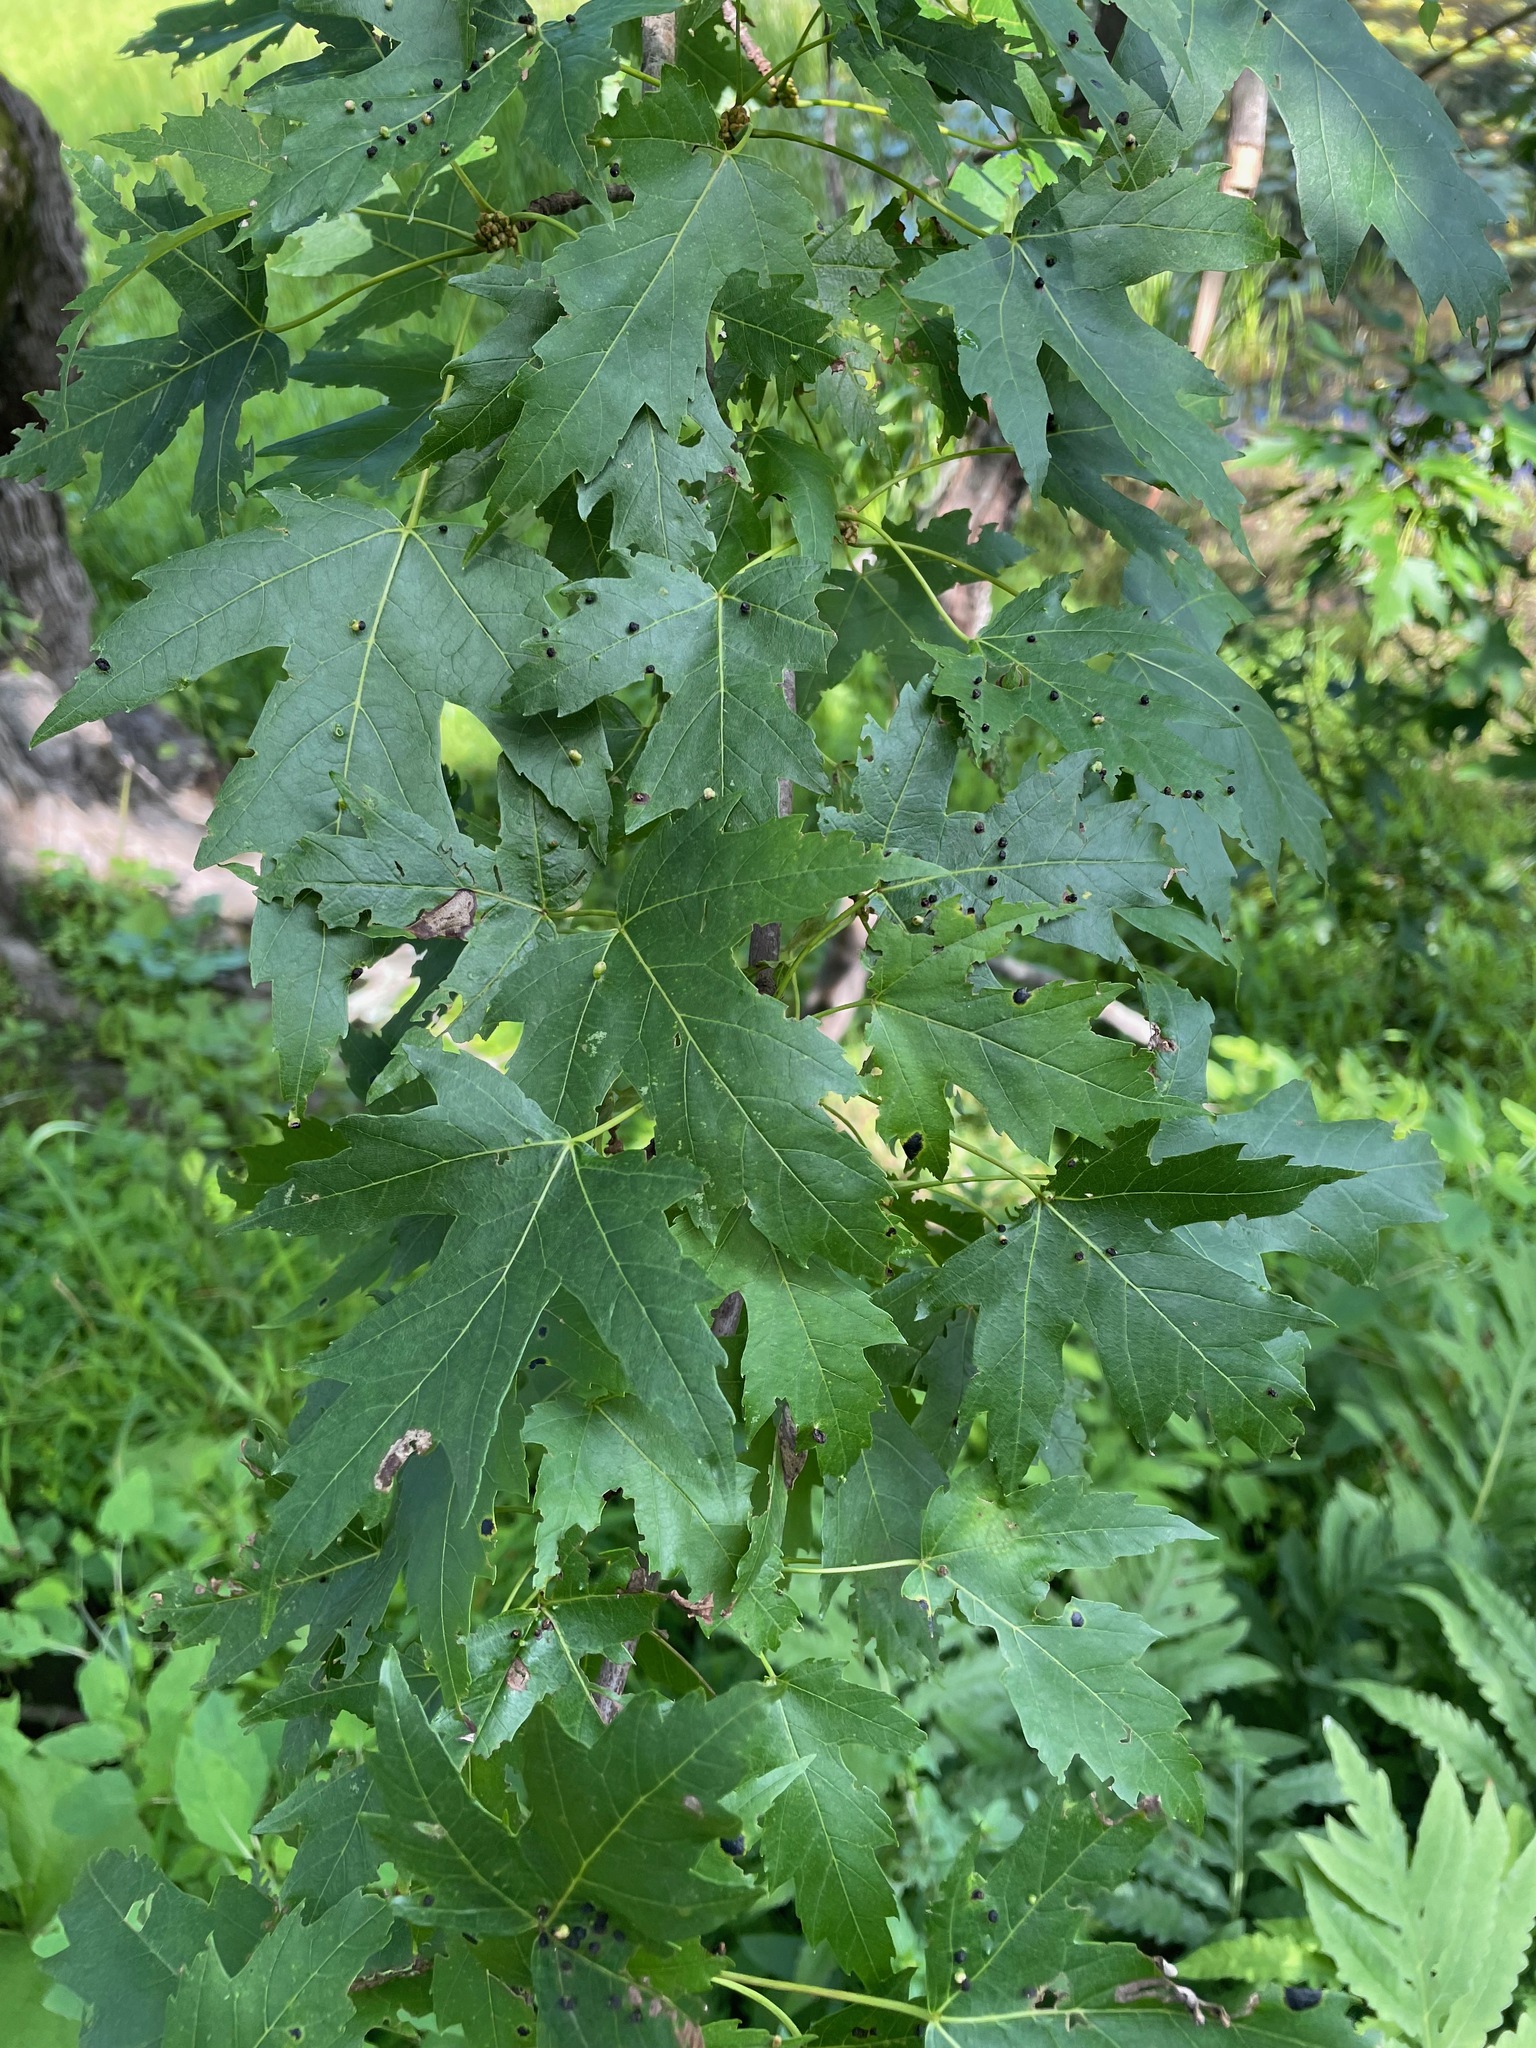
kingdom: Plantae
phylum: Tracheophyta
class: Magnoliopsida
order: Sapindales
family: Sapindaceae
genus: Acer
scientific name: Acer saccharinum
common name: Silver maple
